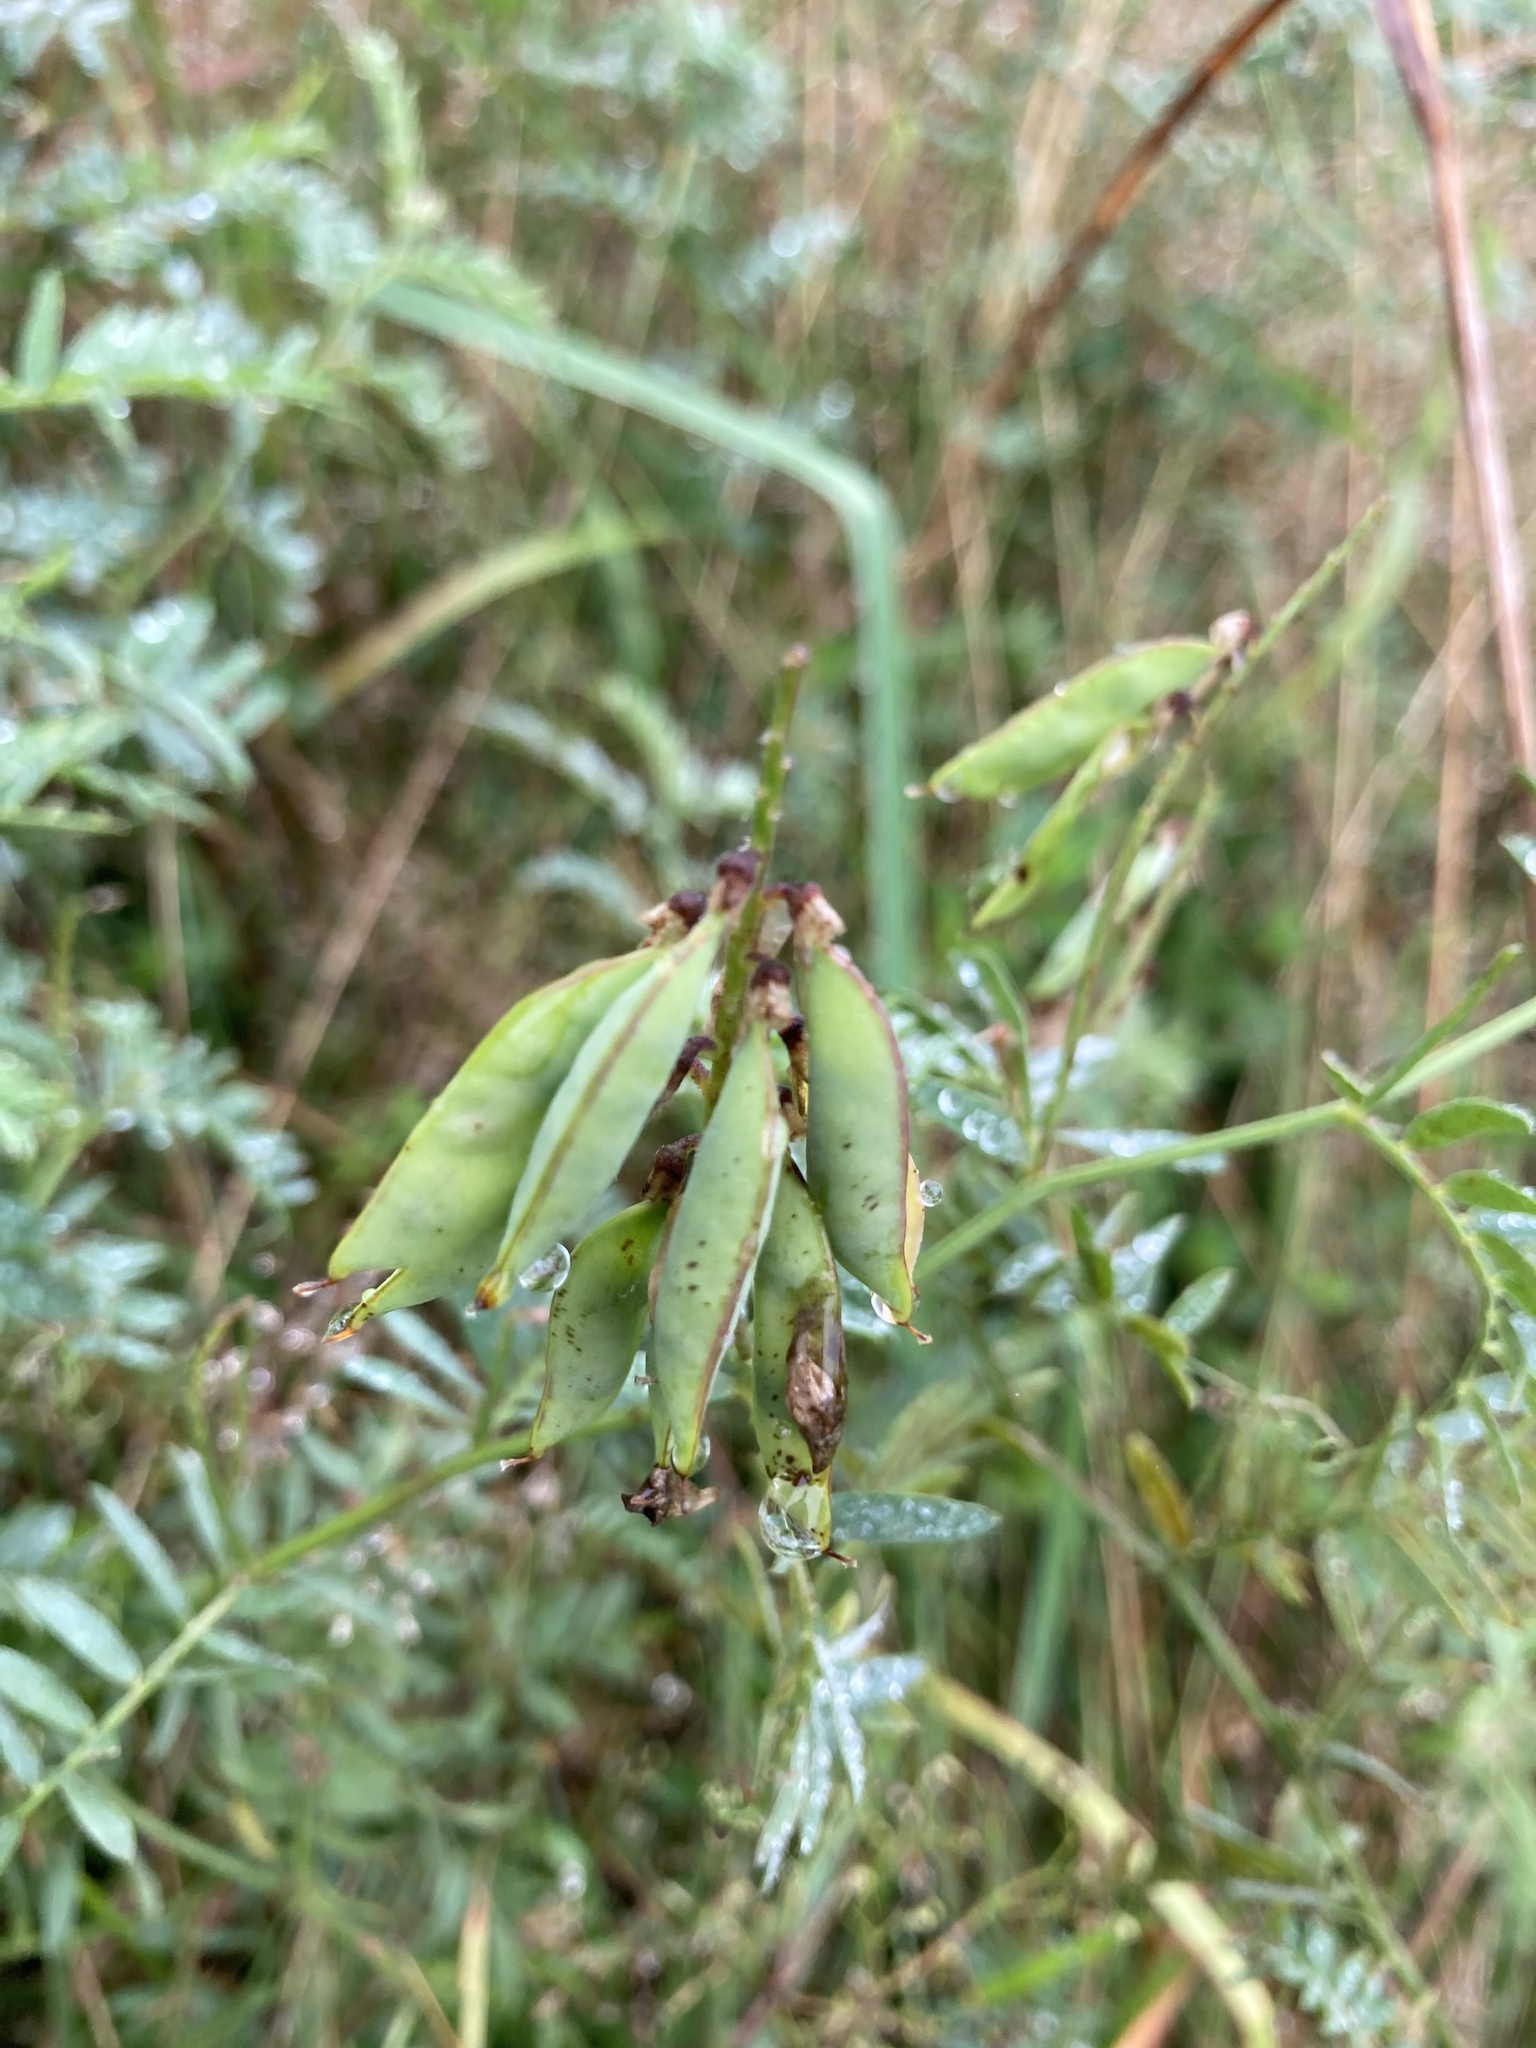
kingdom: Plantae
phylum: Tracheophyta
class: Magnoliopsida
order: Fabales
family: Fabaceae
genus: Vicia
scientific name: Vicia cracca
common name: Bird vetch
